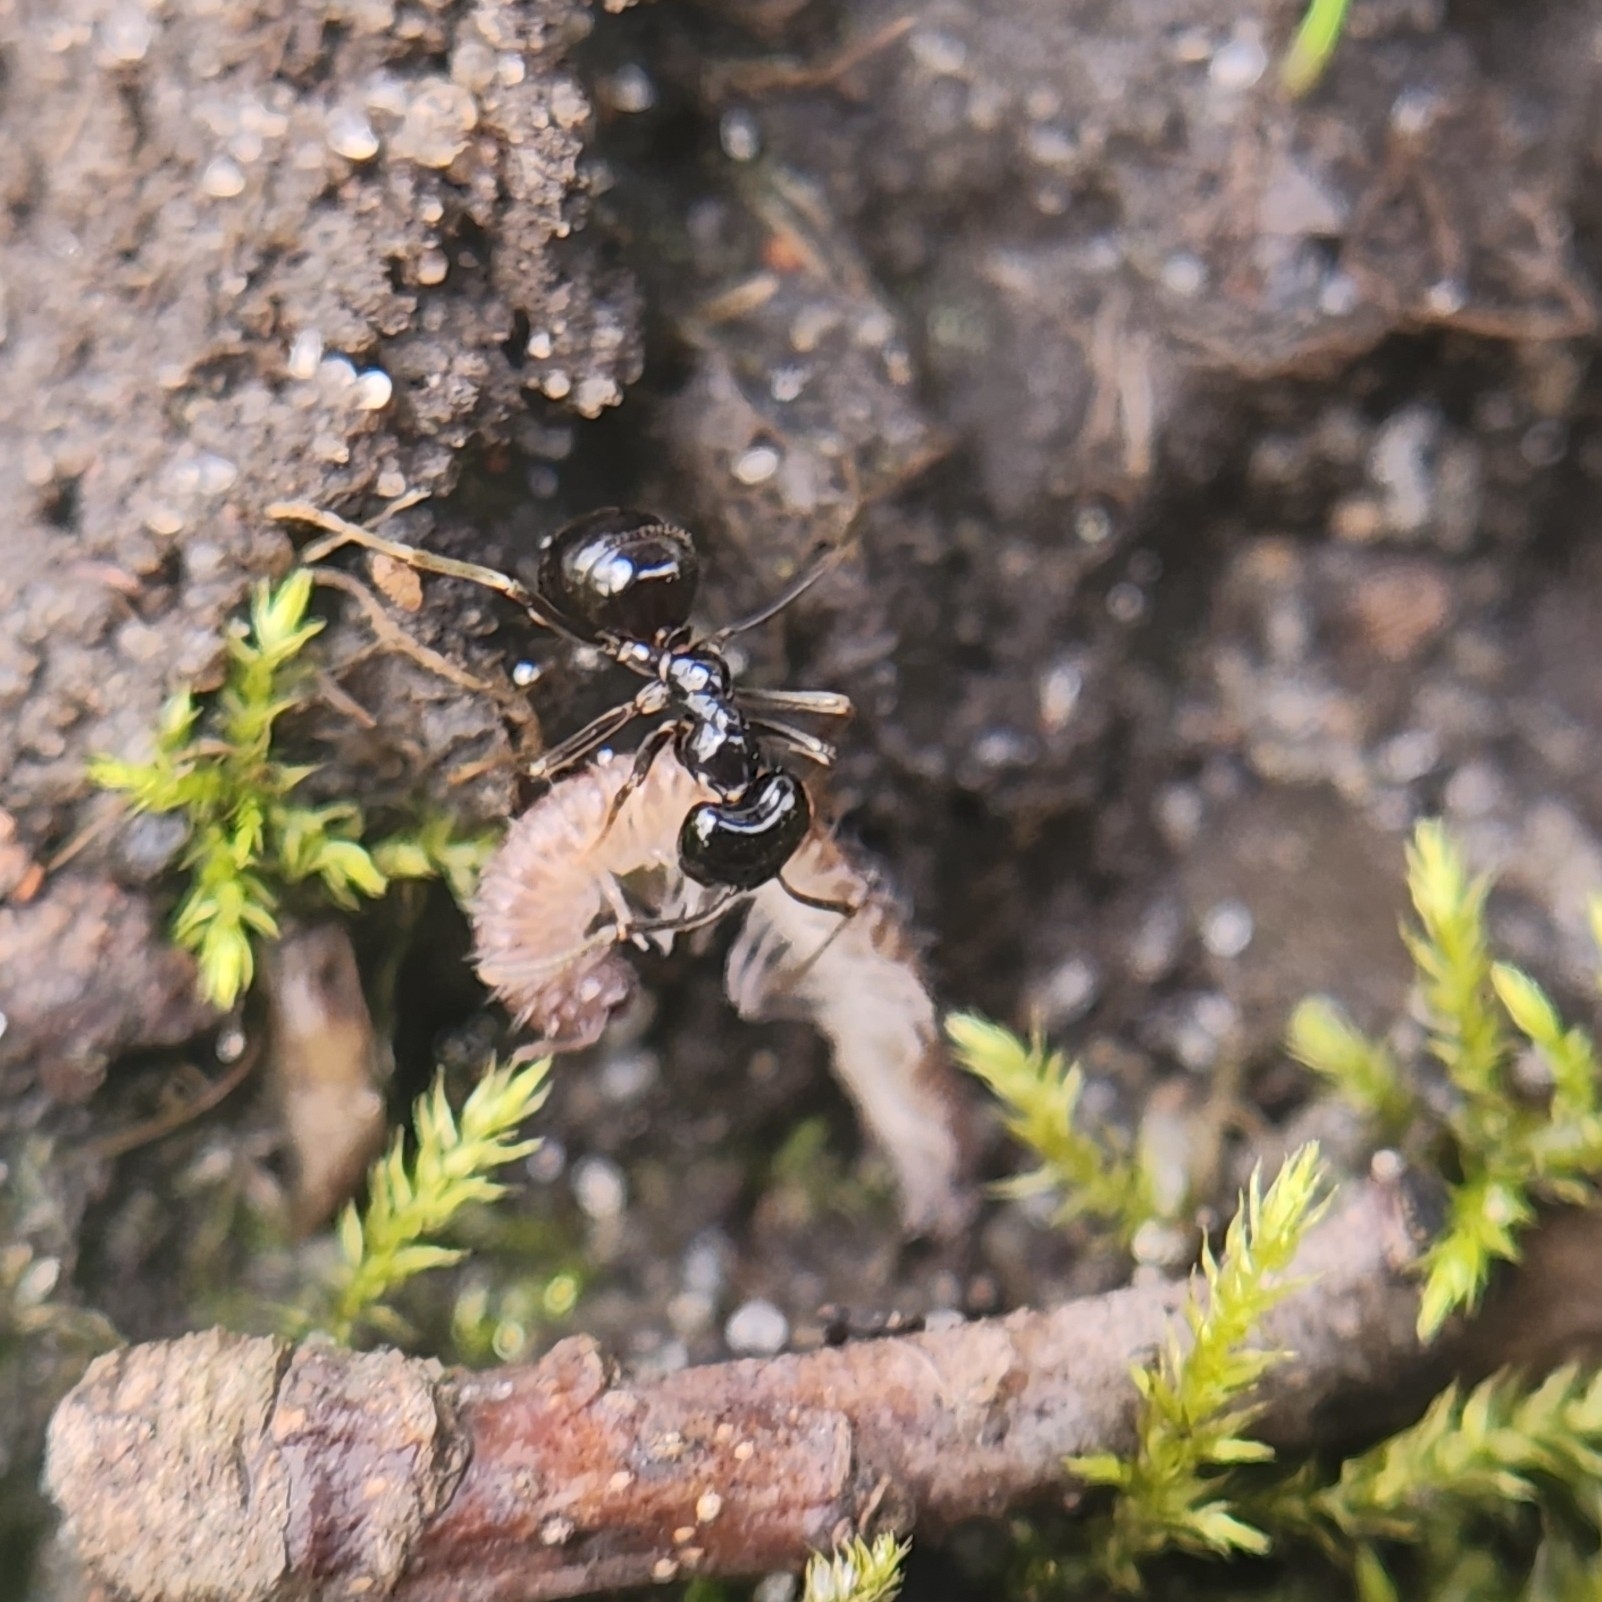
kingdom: Animalia
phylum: Arthropoda
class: Insecta
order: Hymenoptera
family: Formicidae
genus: Lasius
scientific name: Lasius fuliginosus
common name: Jet ant
